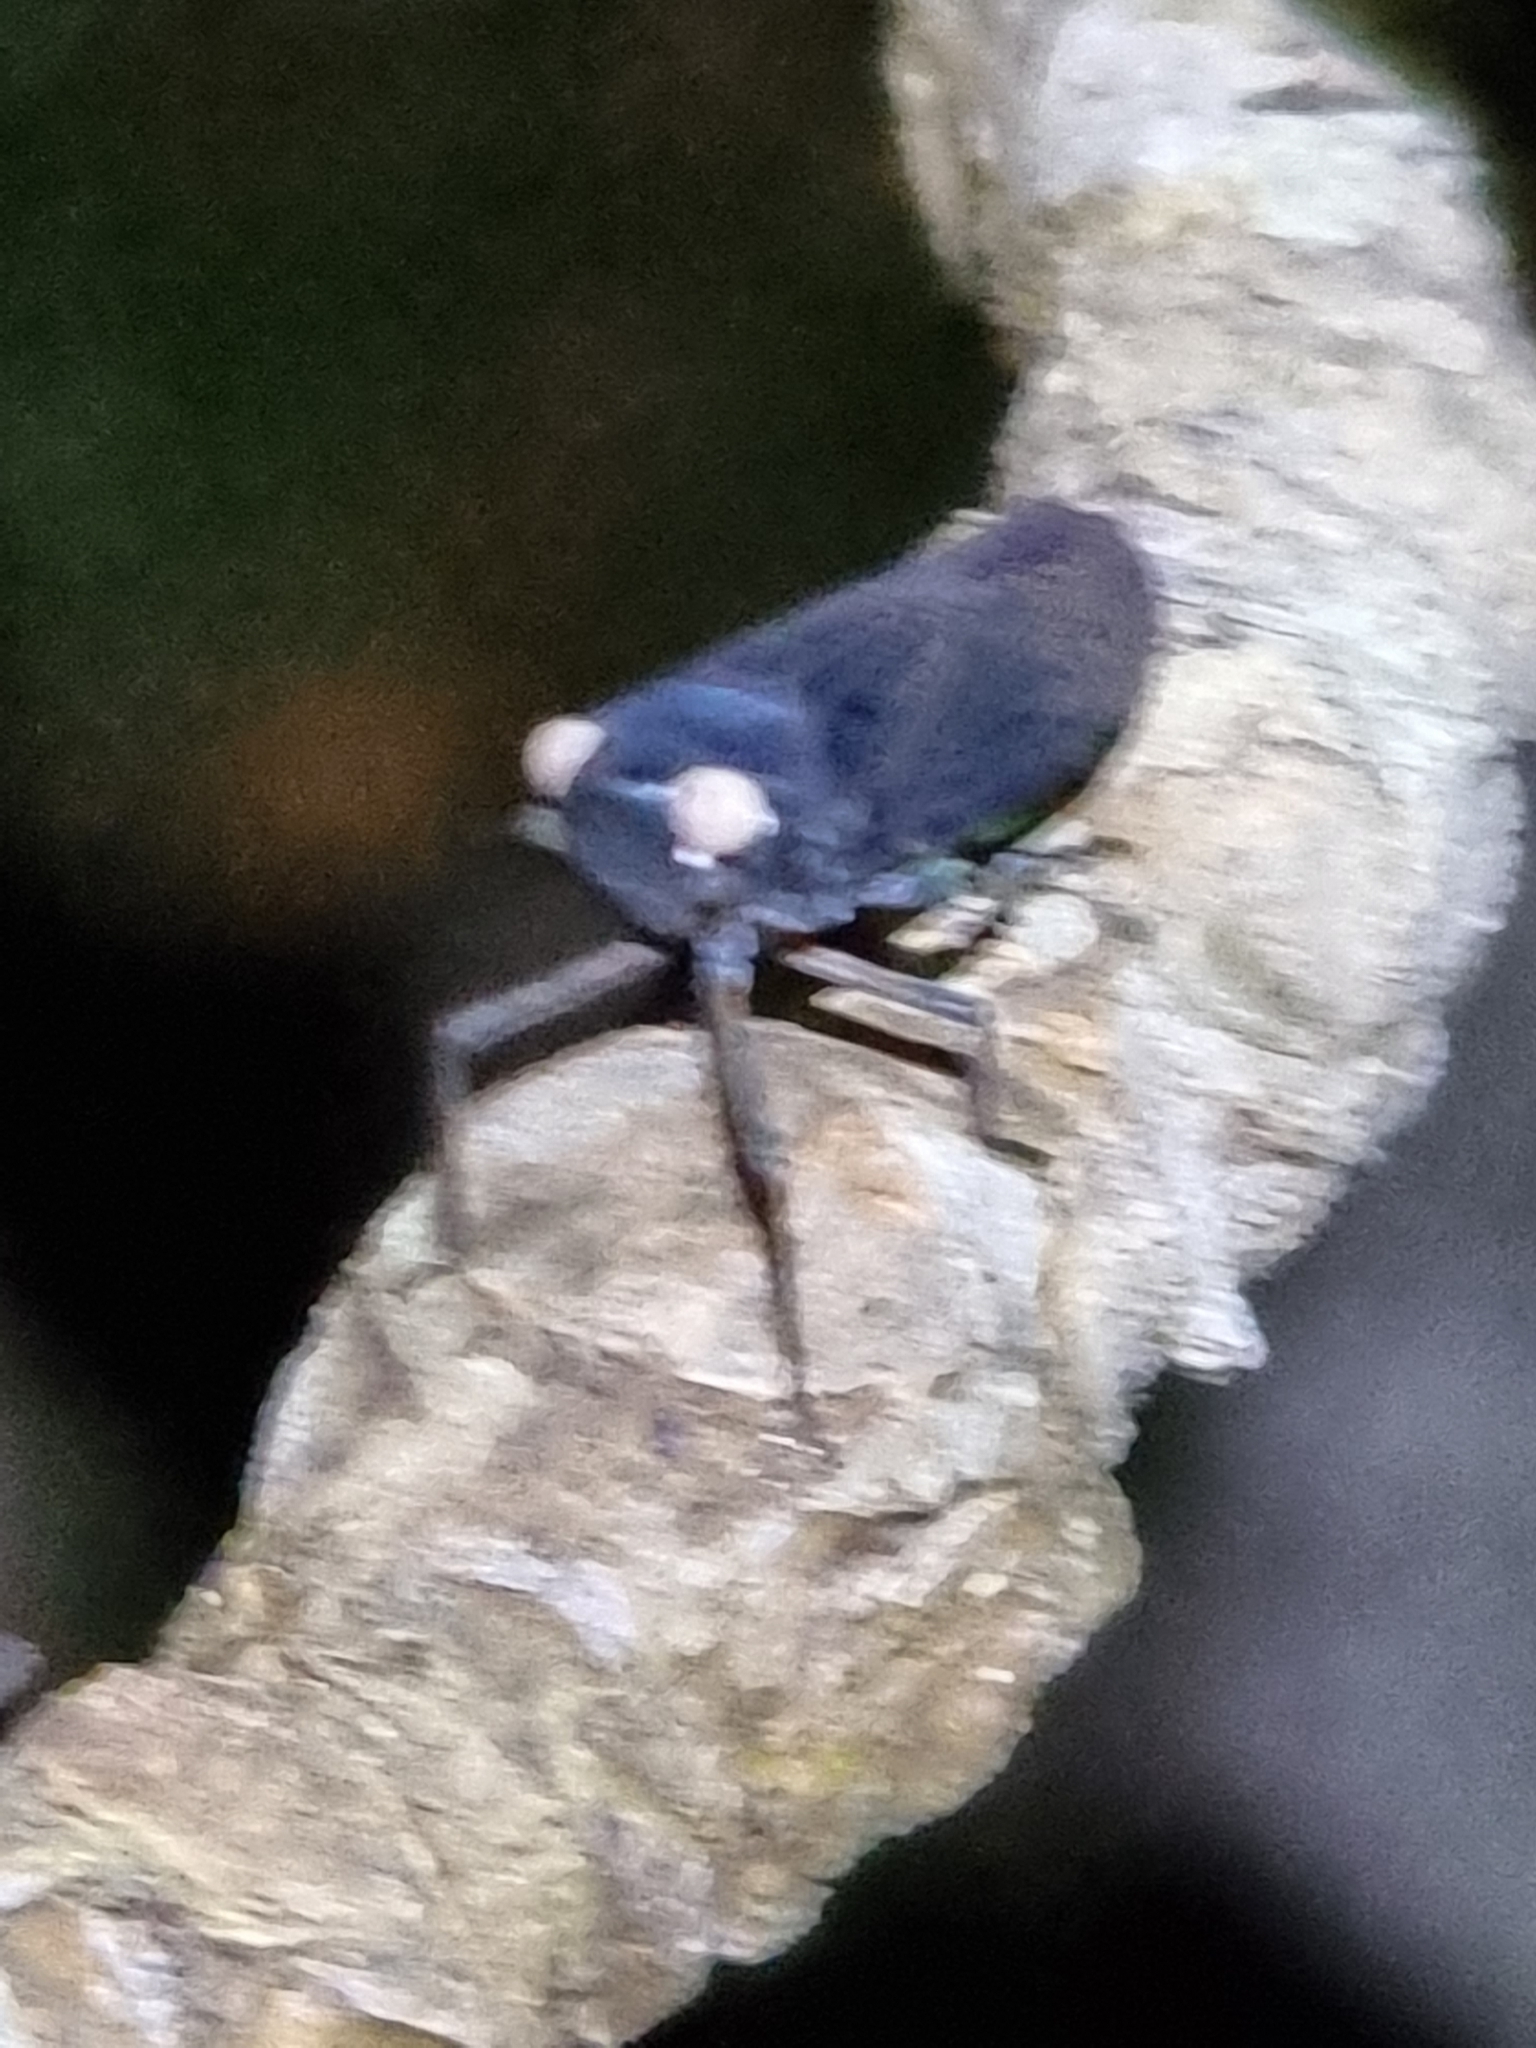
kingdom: Animalia
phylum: Arthropoda
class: Insecta
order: Hemiptera
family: Fulgoridae
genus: Desudaba
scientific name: Desudaba psittacus
